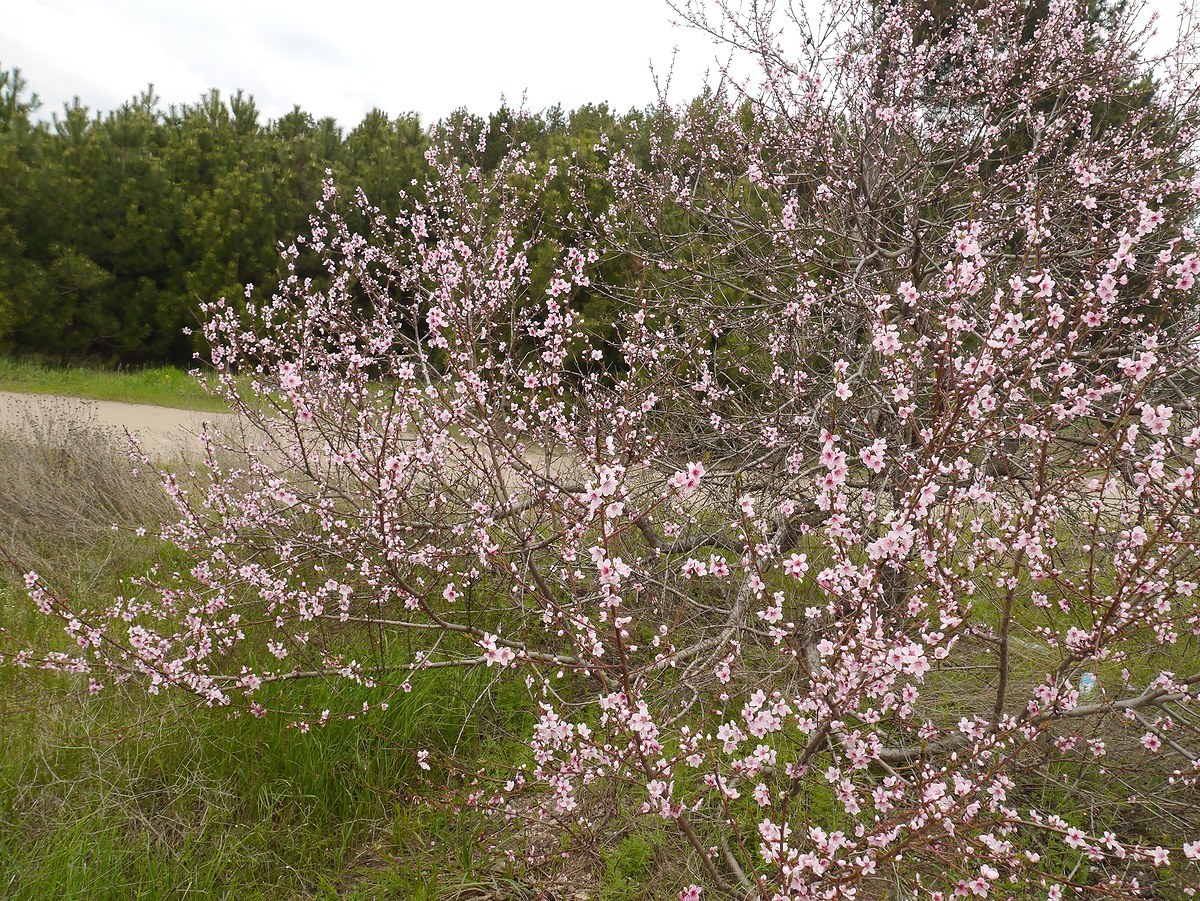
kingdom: Plantae
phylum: Tracheophyta
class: Magnoliopsida
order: Rosales
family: Rosaceae
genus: Prunus
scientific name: Prunus persica
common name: Peach
